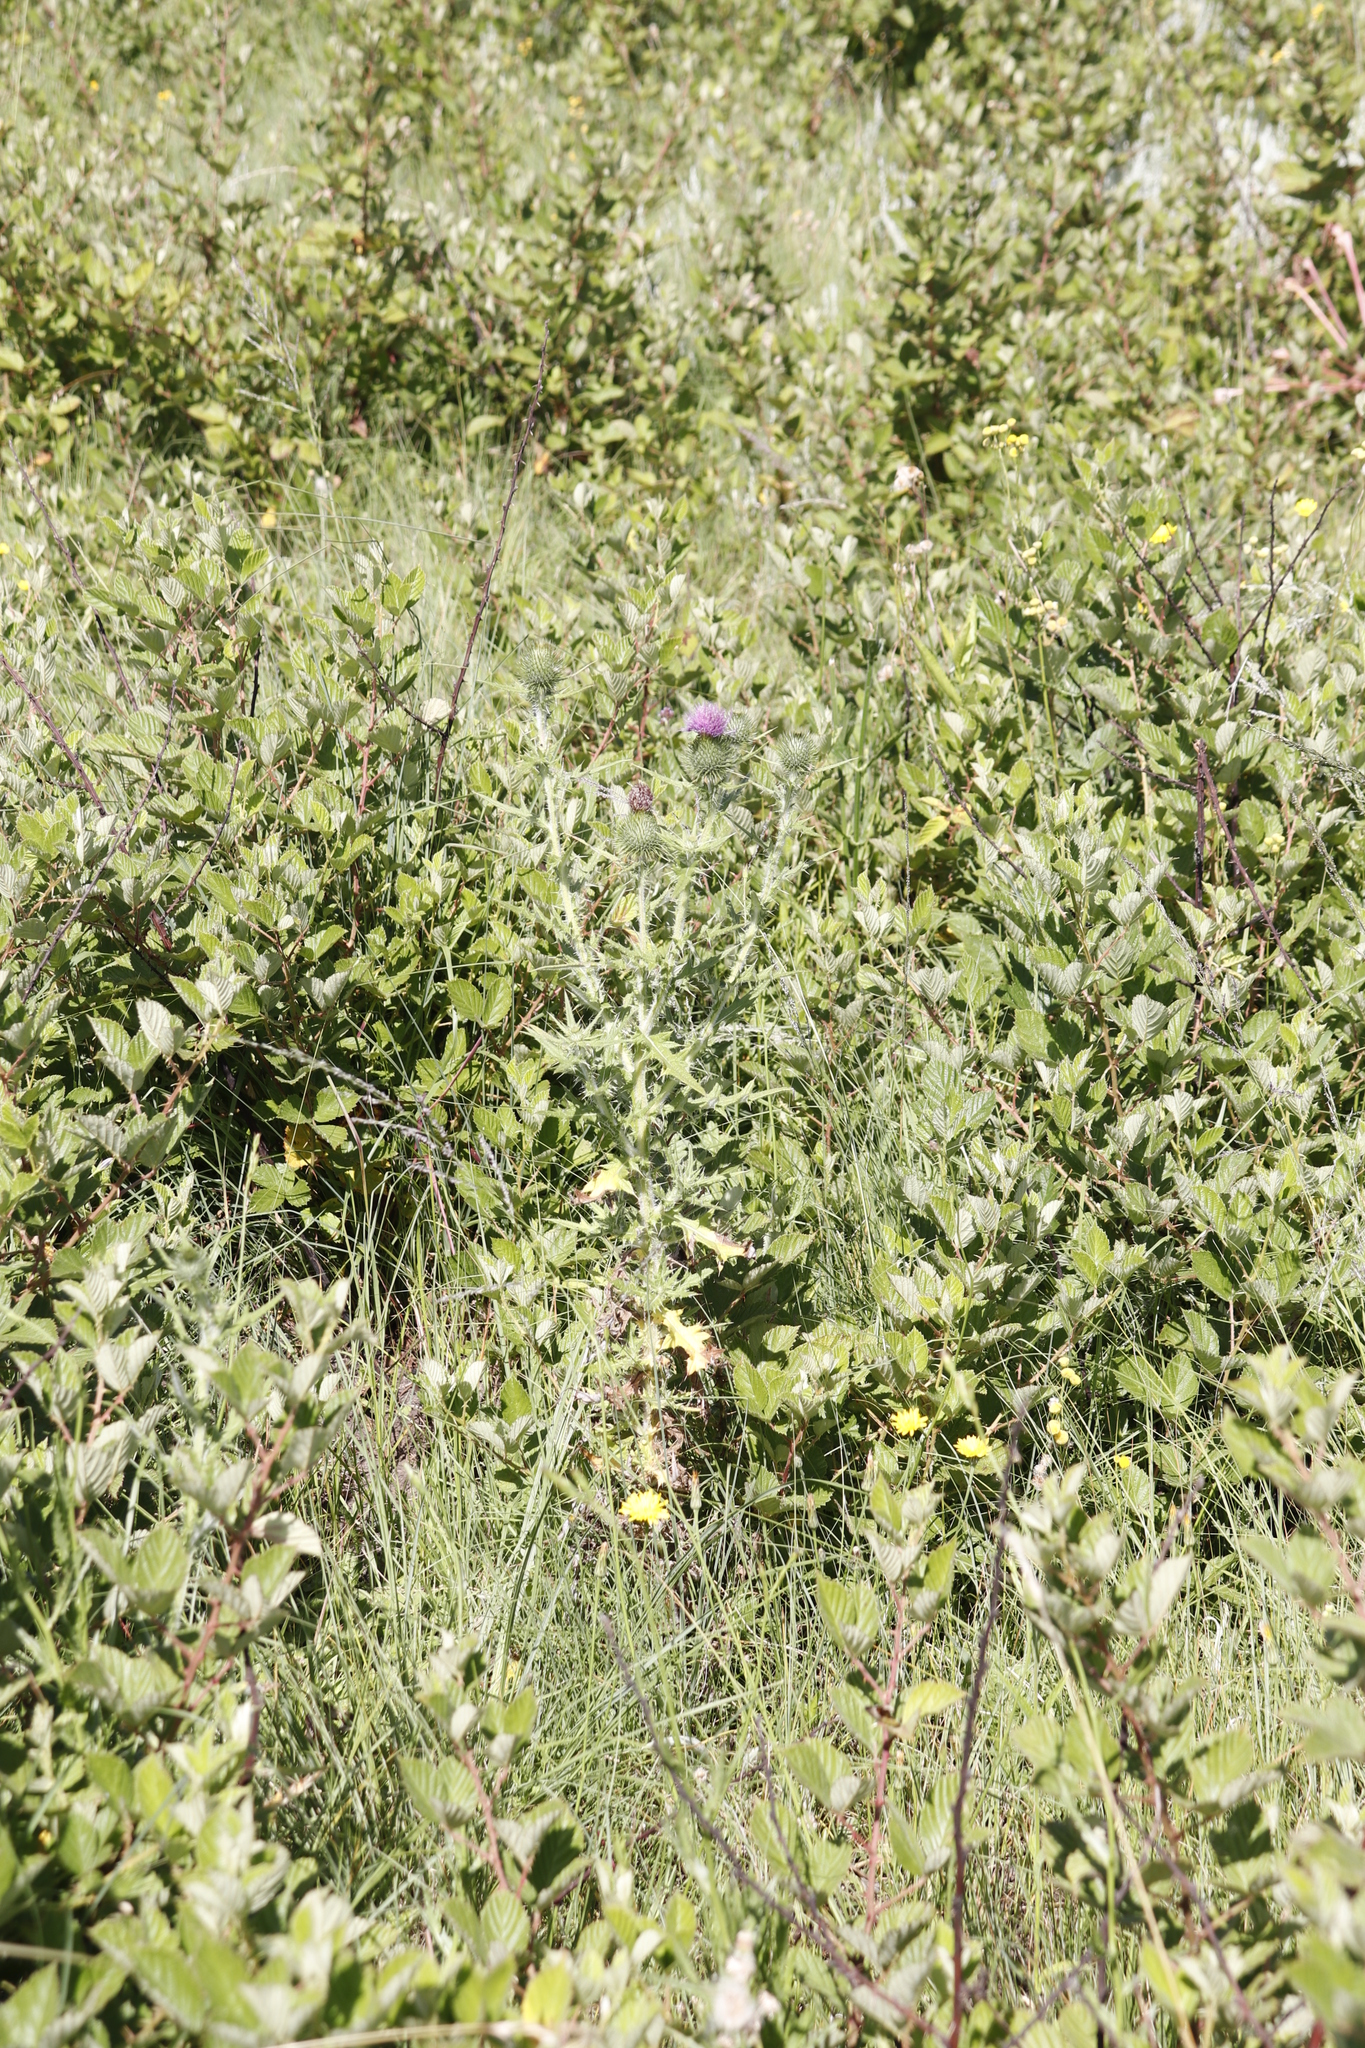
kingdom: Plantae
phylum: Tracheophyta
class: Magnoliopsida
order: Asterales
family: Asteraceae
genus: Cirsium
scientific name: Cirsium vulgare
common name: Bull thistle
